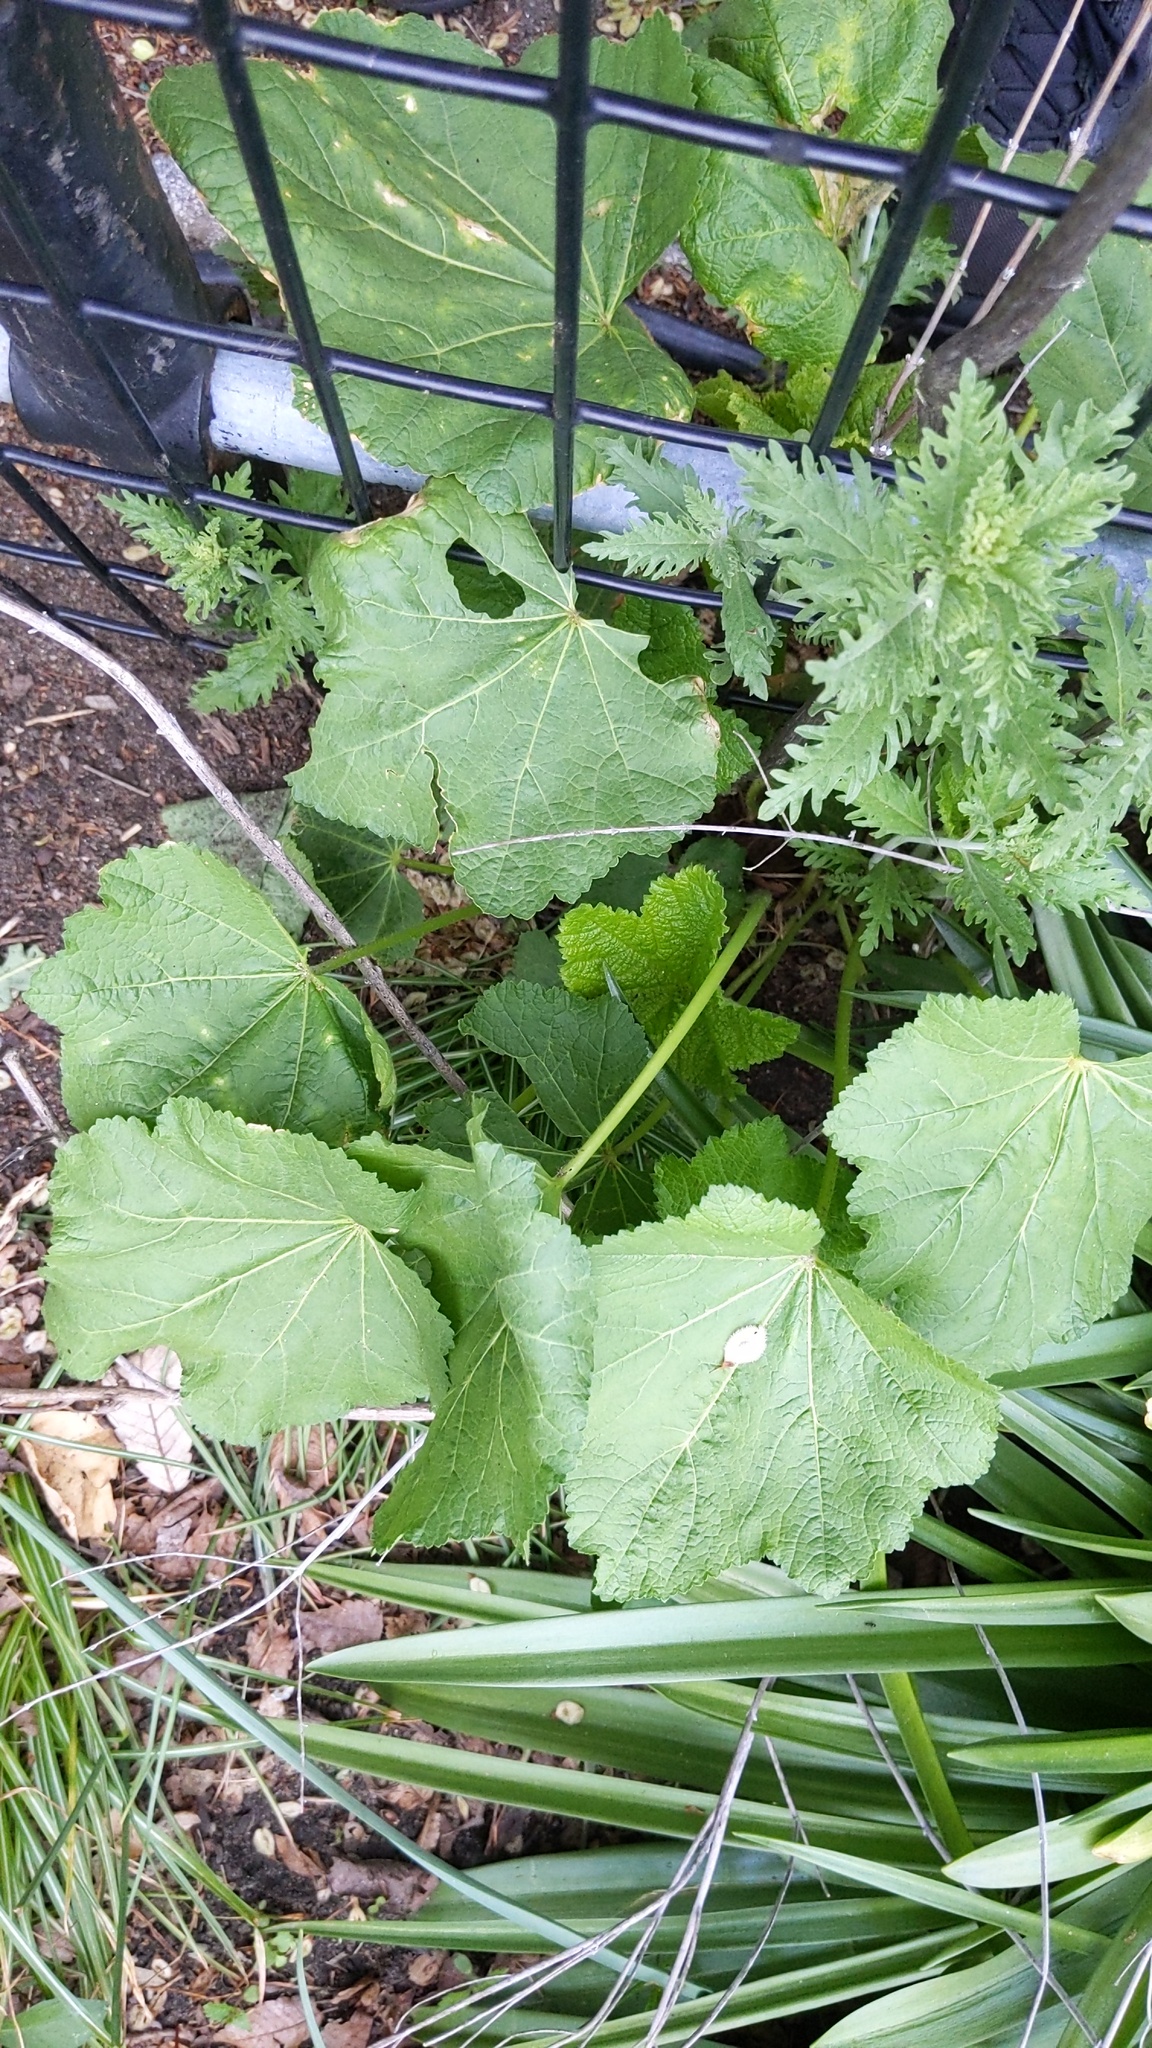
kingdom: Plantae
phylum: Tracheophyta
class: Magnoliopsida
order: Malvales
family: Malvaceae
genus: Alcea
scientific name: Alcea rosea
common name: Hollyhock
